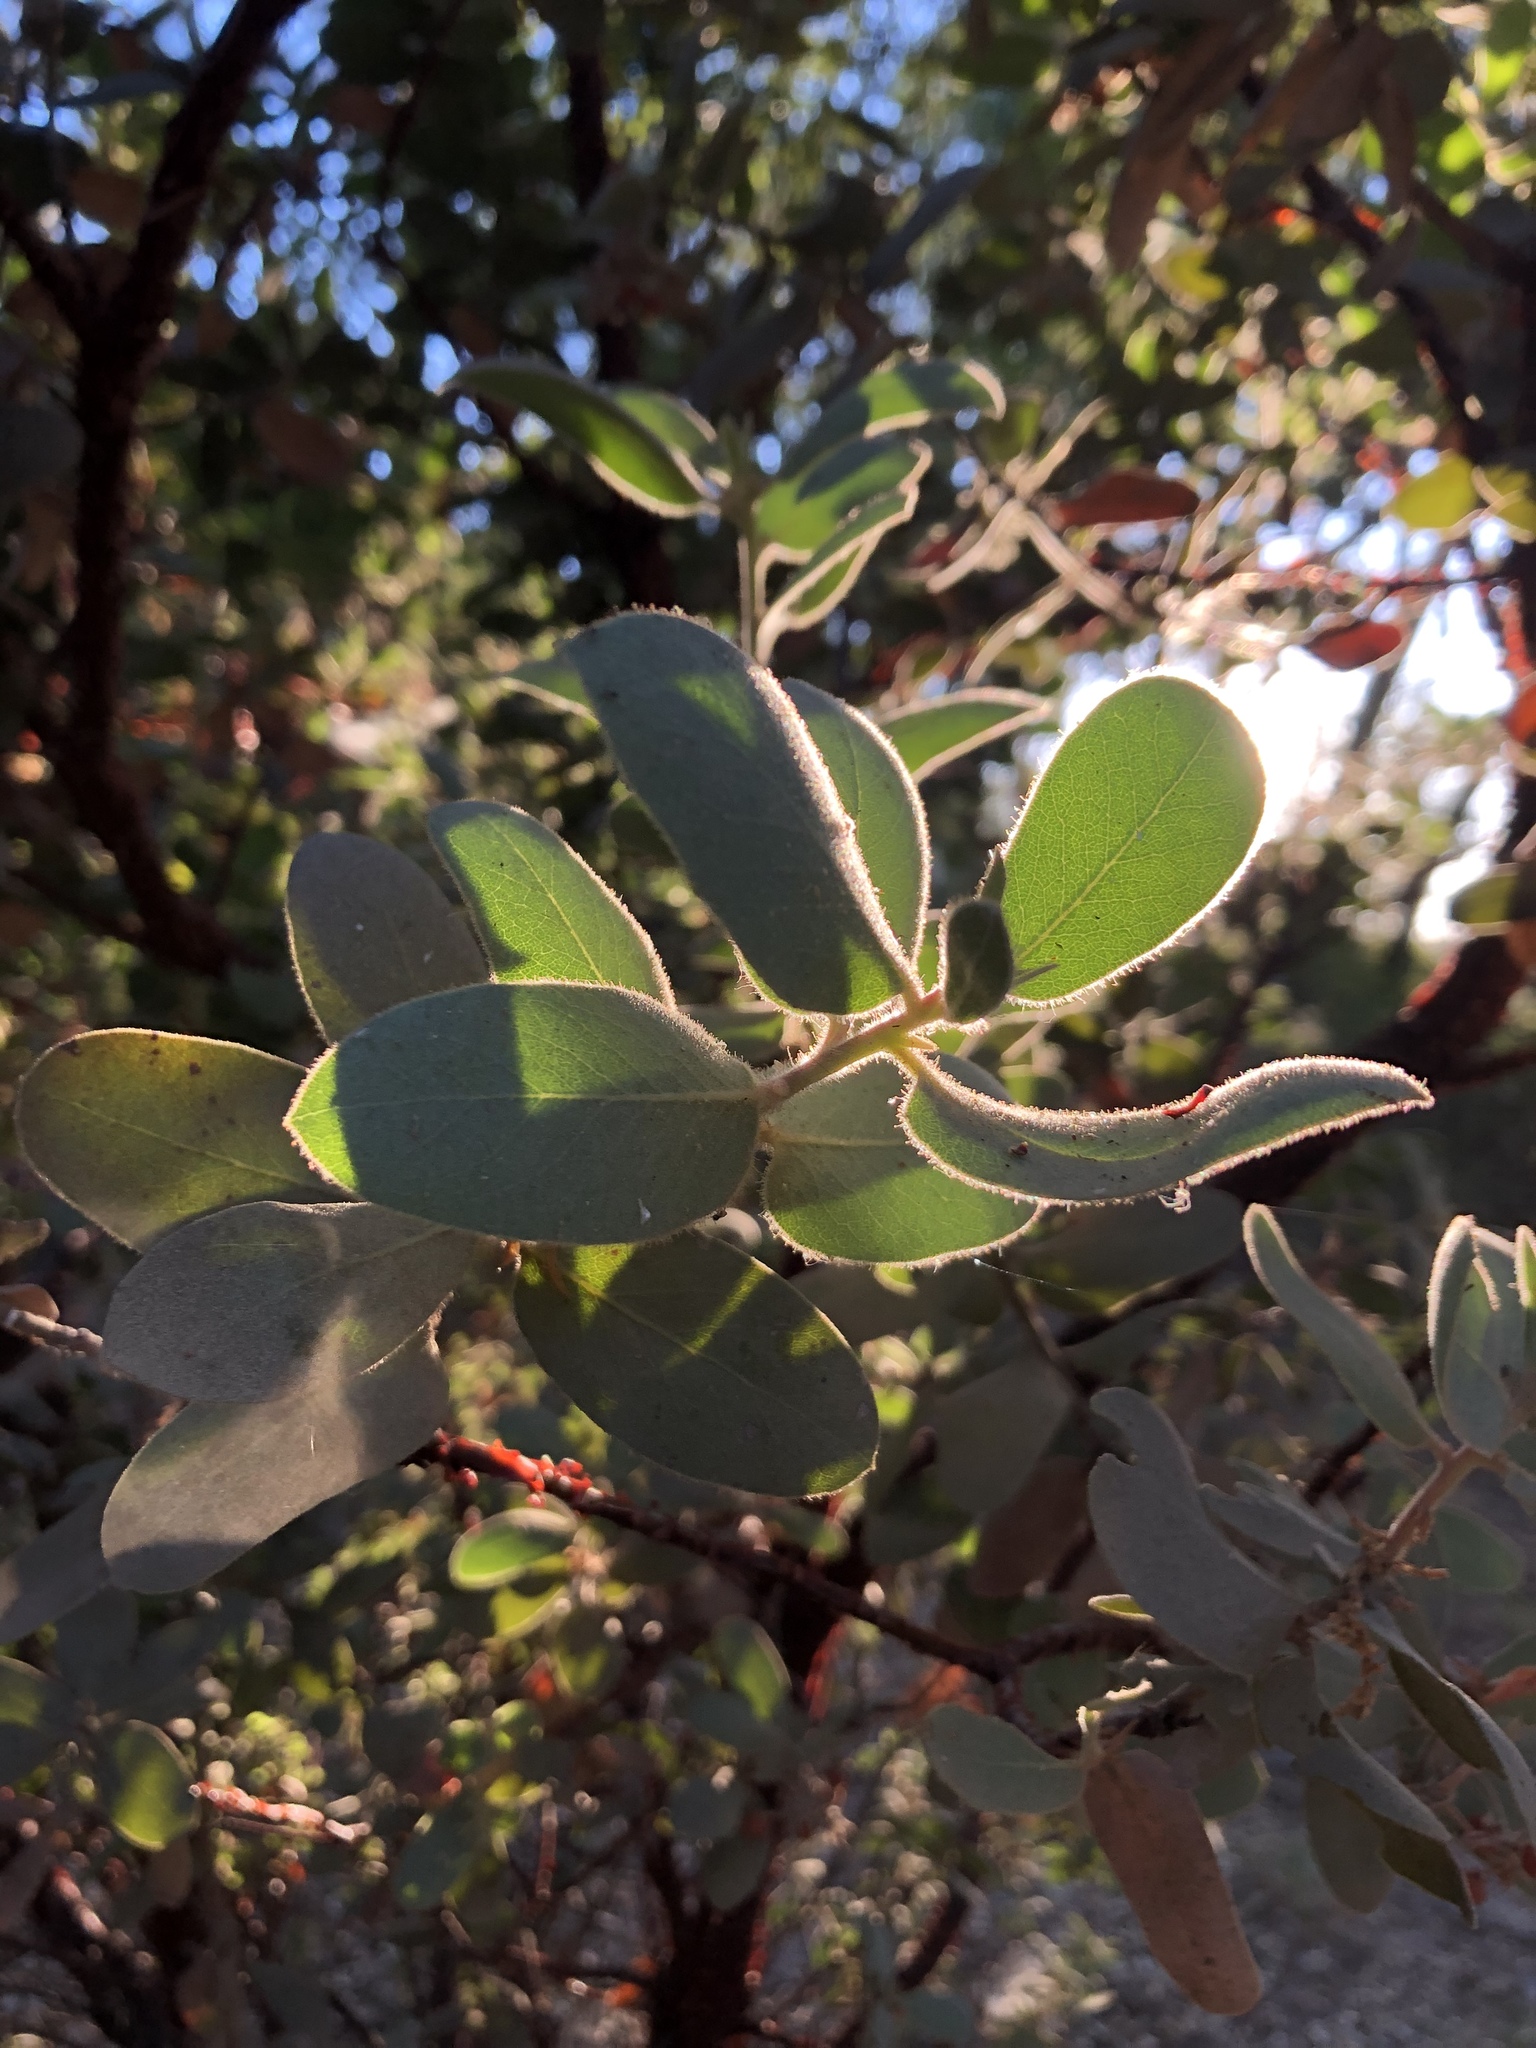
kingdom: Plantae
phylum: Tracheophyta
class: Magnoliopsida
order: Ericales
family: Ericaceae
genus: Arctostaphylos
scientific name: Arctostaphylos hooveri
